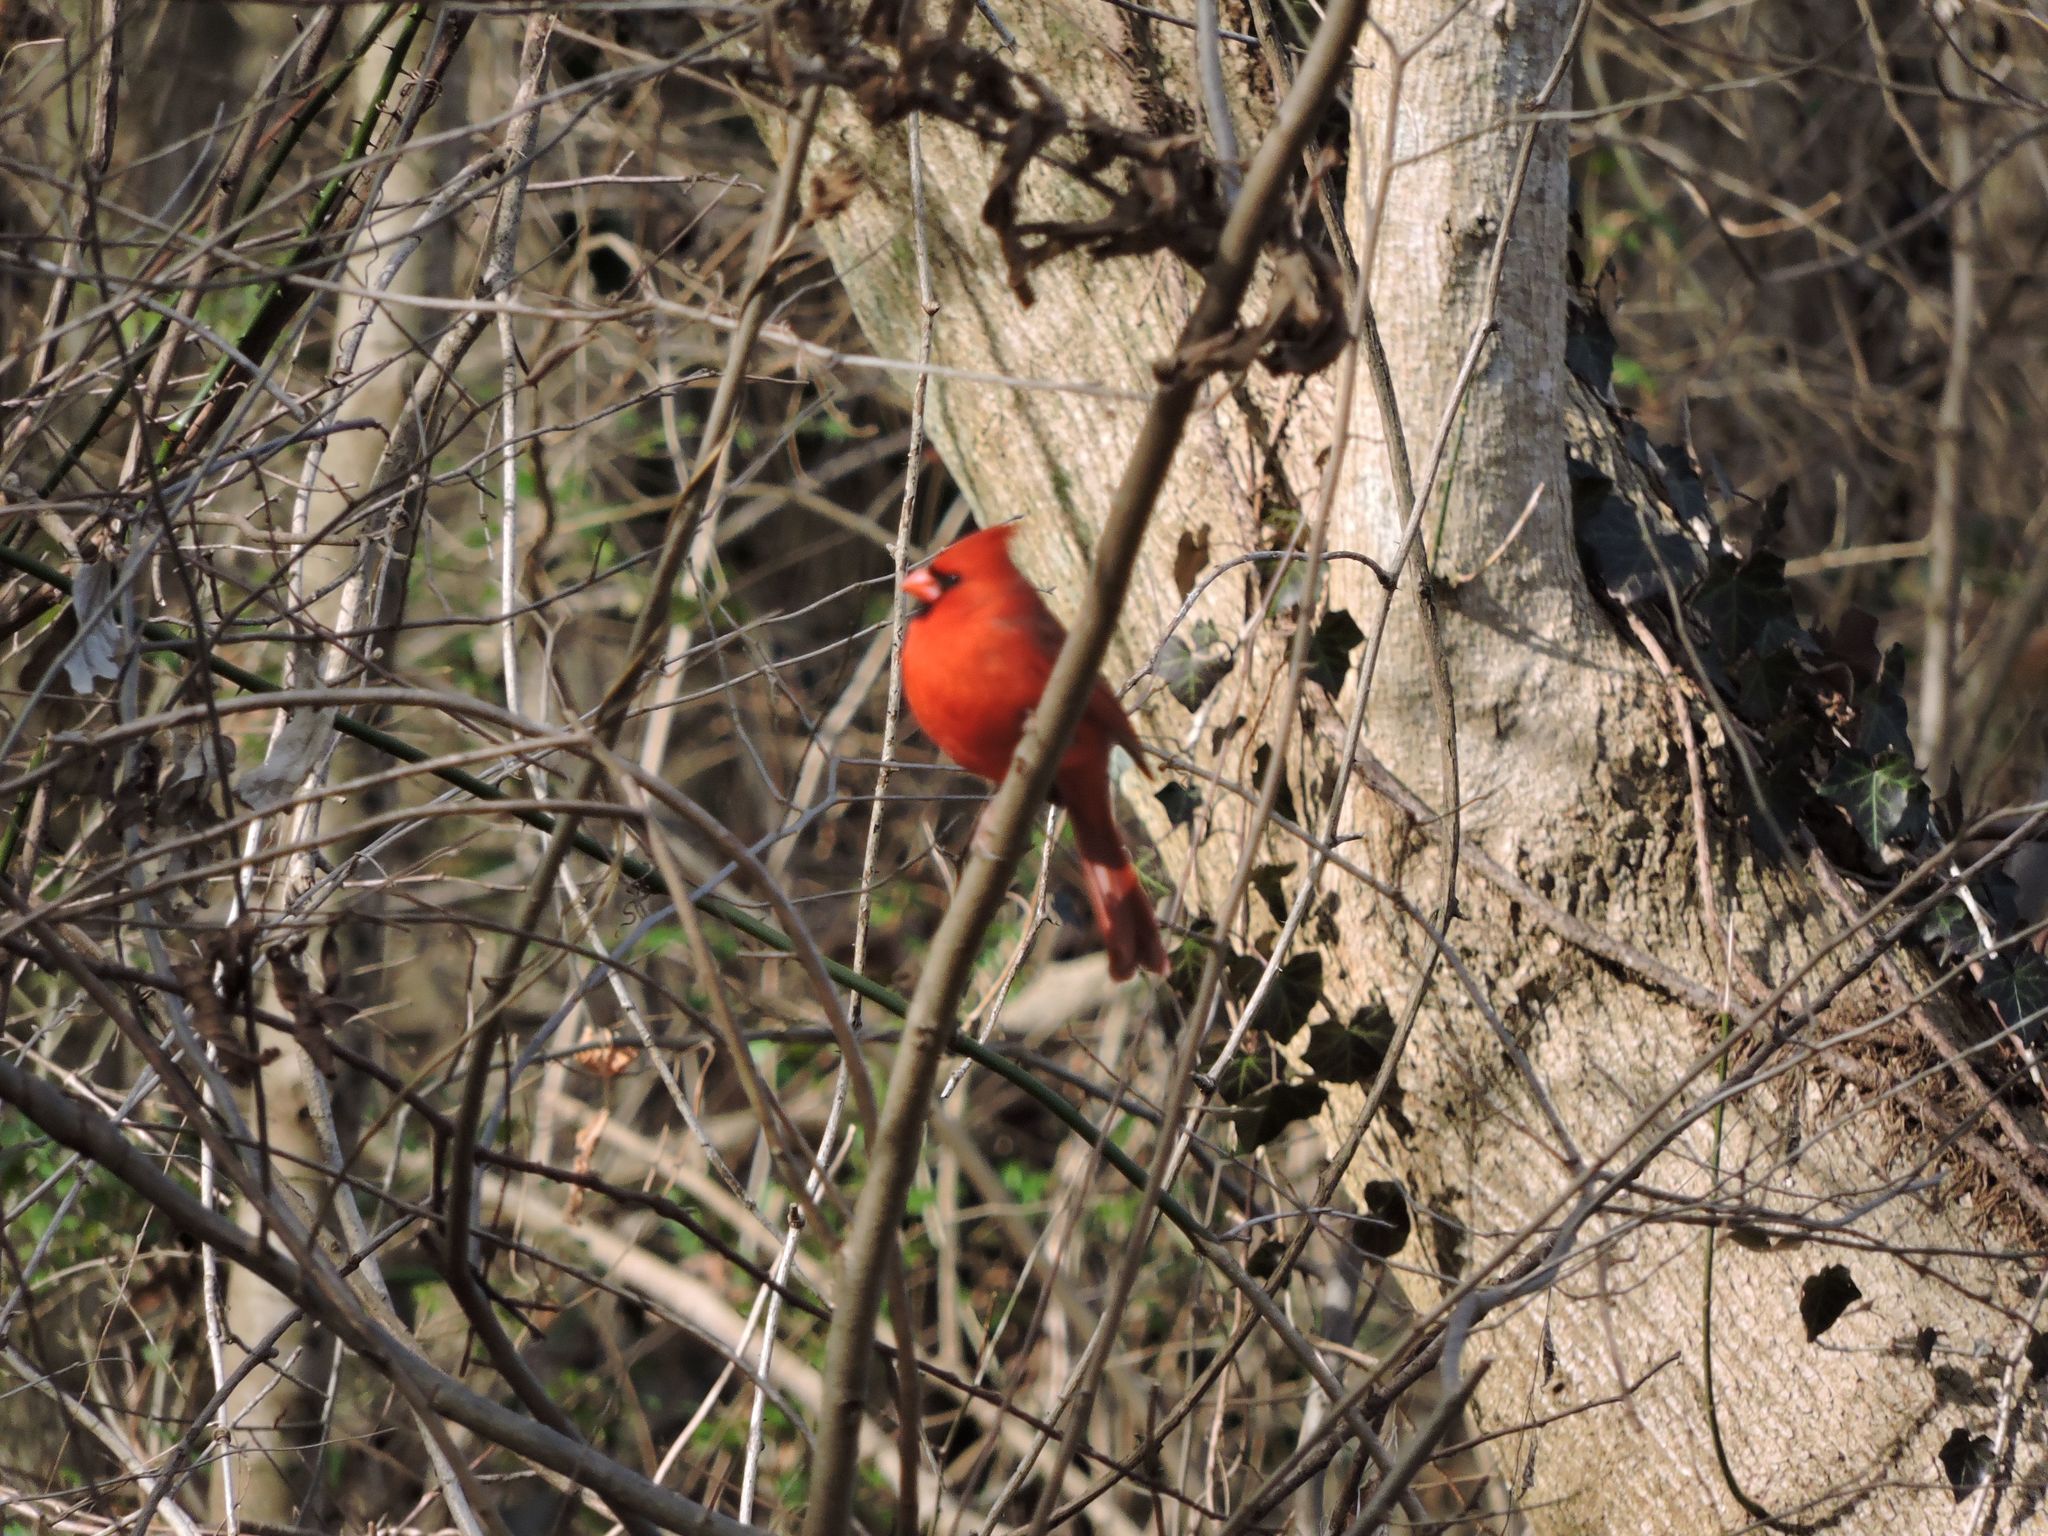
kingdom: Animalia
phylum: Chordata
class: Aves
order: Passeriformes
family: Cardinalidae
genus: Cardinalis
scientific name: Cardinalis cardinalis
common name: Northern cardinal
